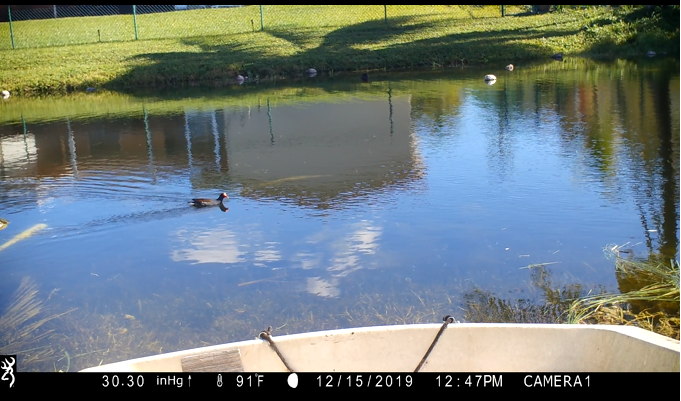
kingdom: Animalia
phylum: Chordata
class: Aves
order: Gruiformes
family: Rallidae
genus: Gallinula
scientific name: Gallinula chloropus
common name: Common moorhen
